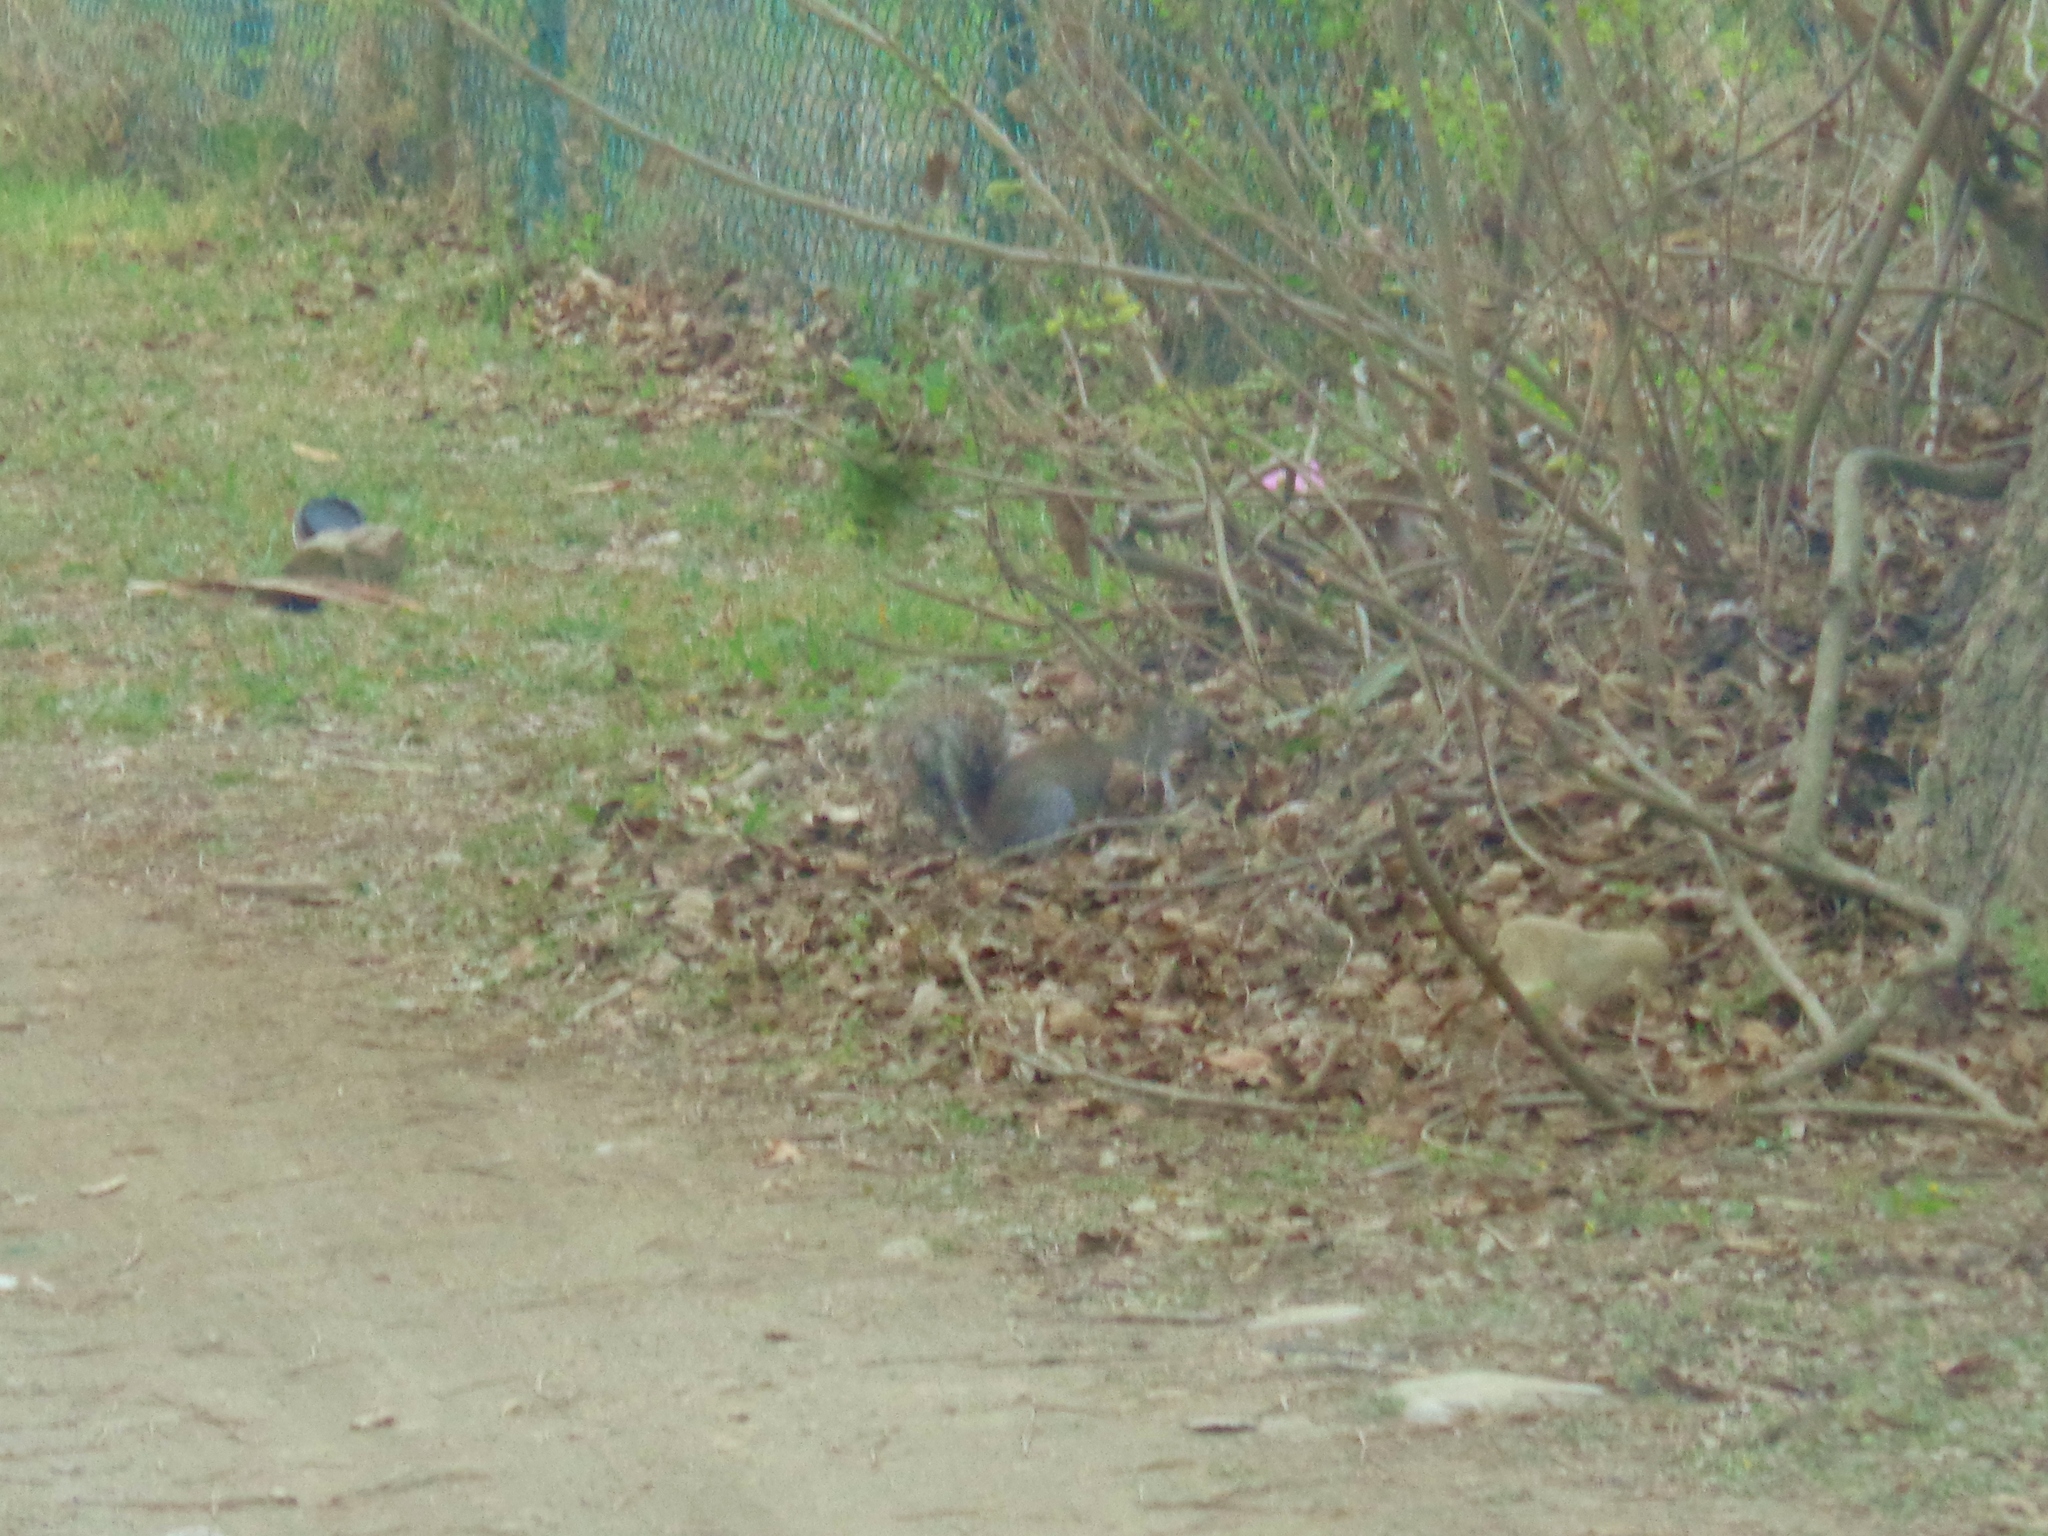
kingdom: Animalia
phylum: Chordata
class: Mammalia
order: Rodentia
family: Sciuridae
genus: Sciurus
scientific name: Sciurus alleni
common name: Allen's squirrel
